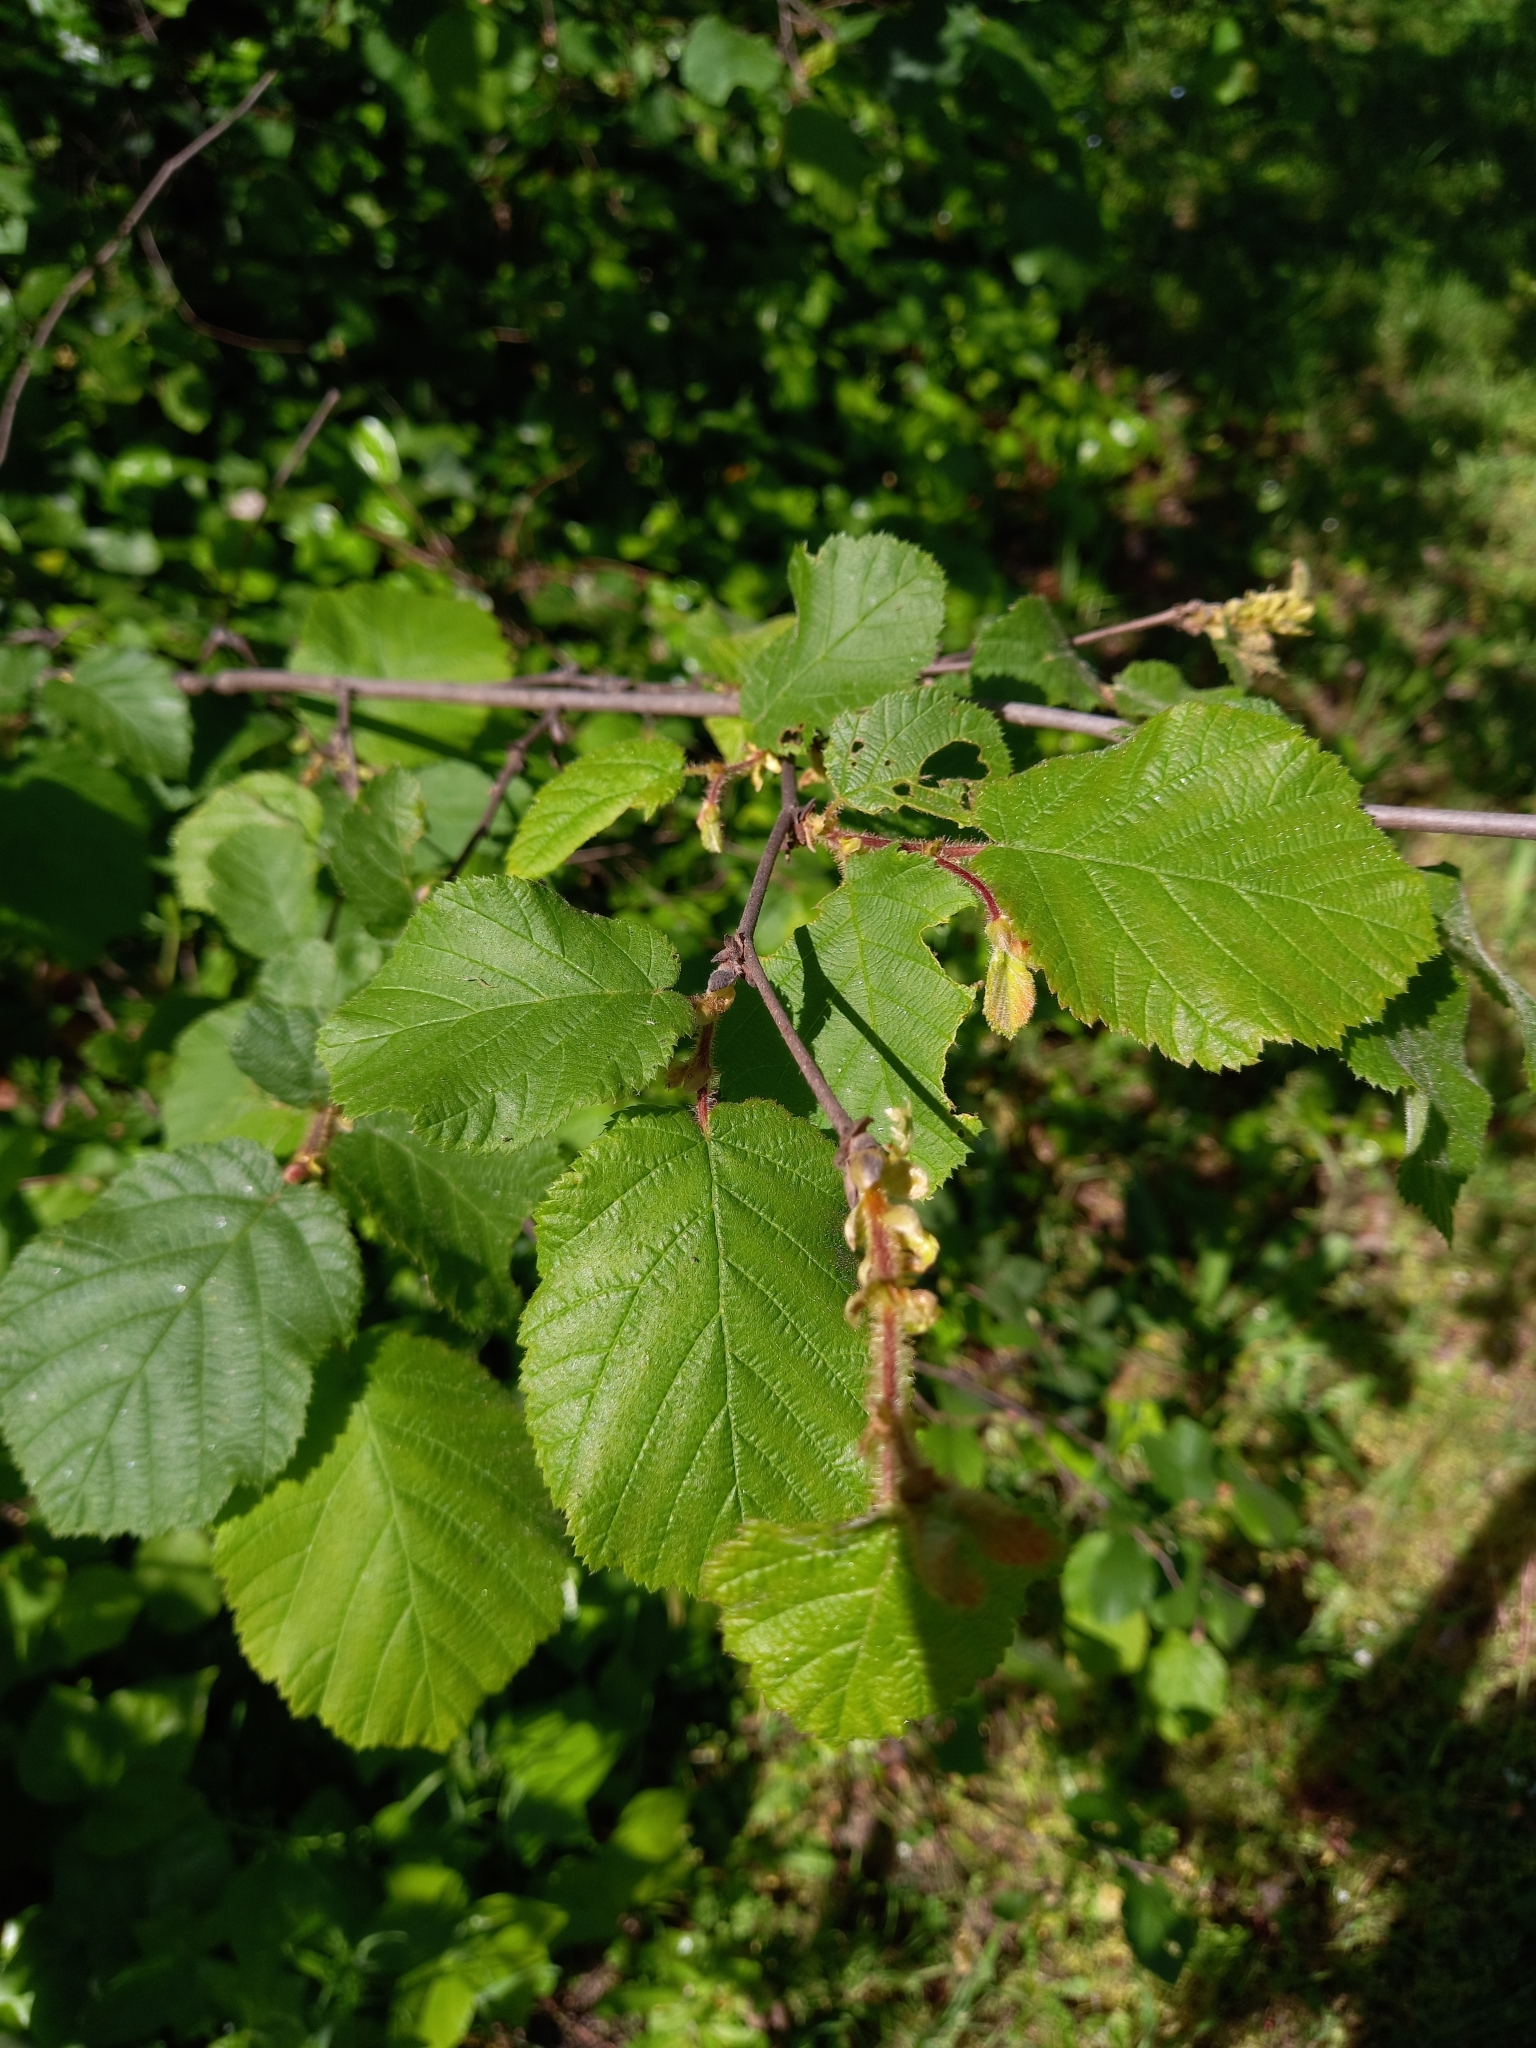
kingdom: Plantae
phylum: Tracheophyta
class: Magnoliopsida
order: Fagales
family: Betulaceae
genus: Corylus
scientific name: Corylus cornuta
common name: Beaked hazel
